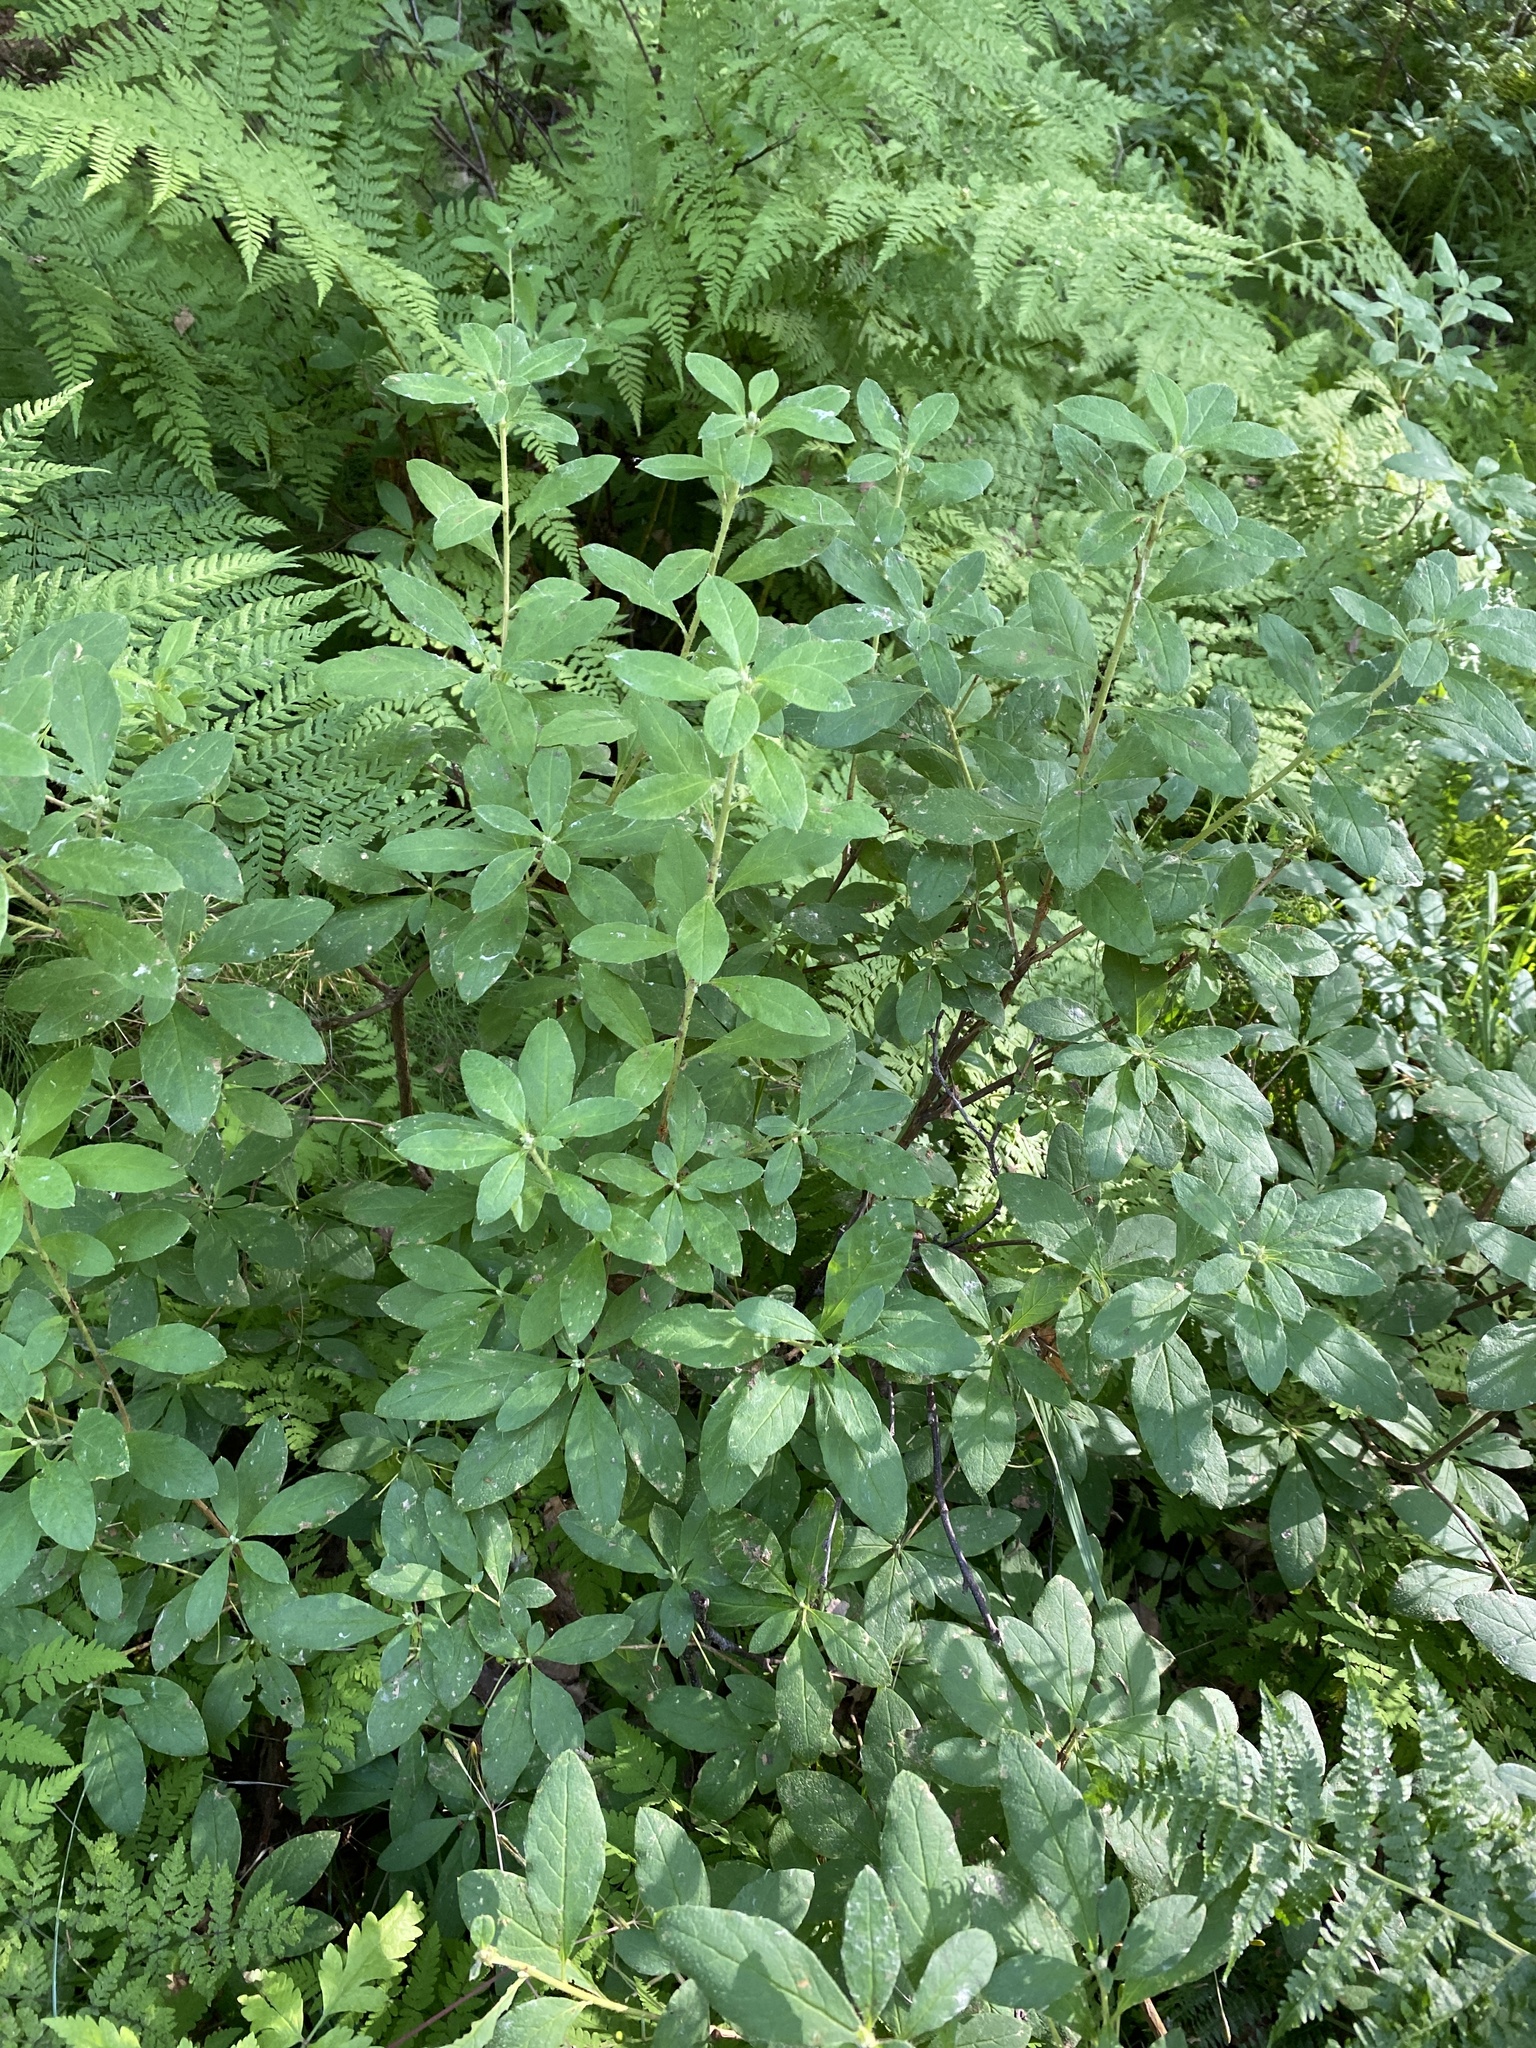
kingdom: Plantae
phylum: Tracheophyta
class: Magnoliopsida
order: Ericales
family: Ericaceae
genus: Rhododendron
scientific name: Rhododendron menziesii
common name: Pacific menziesia
